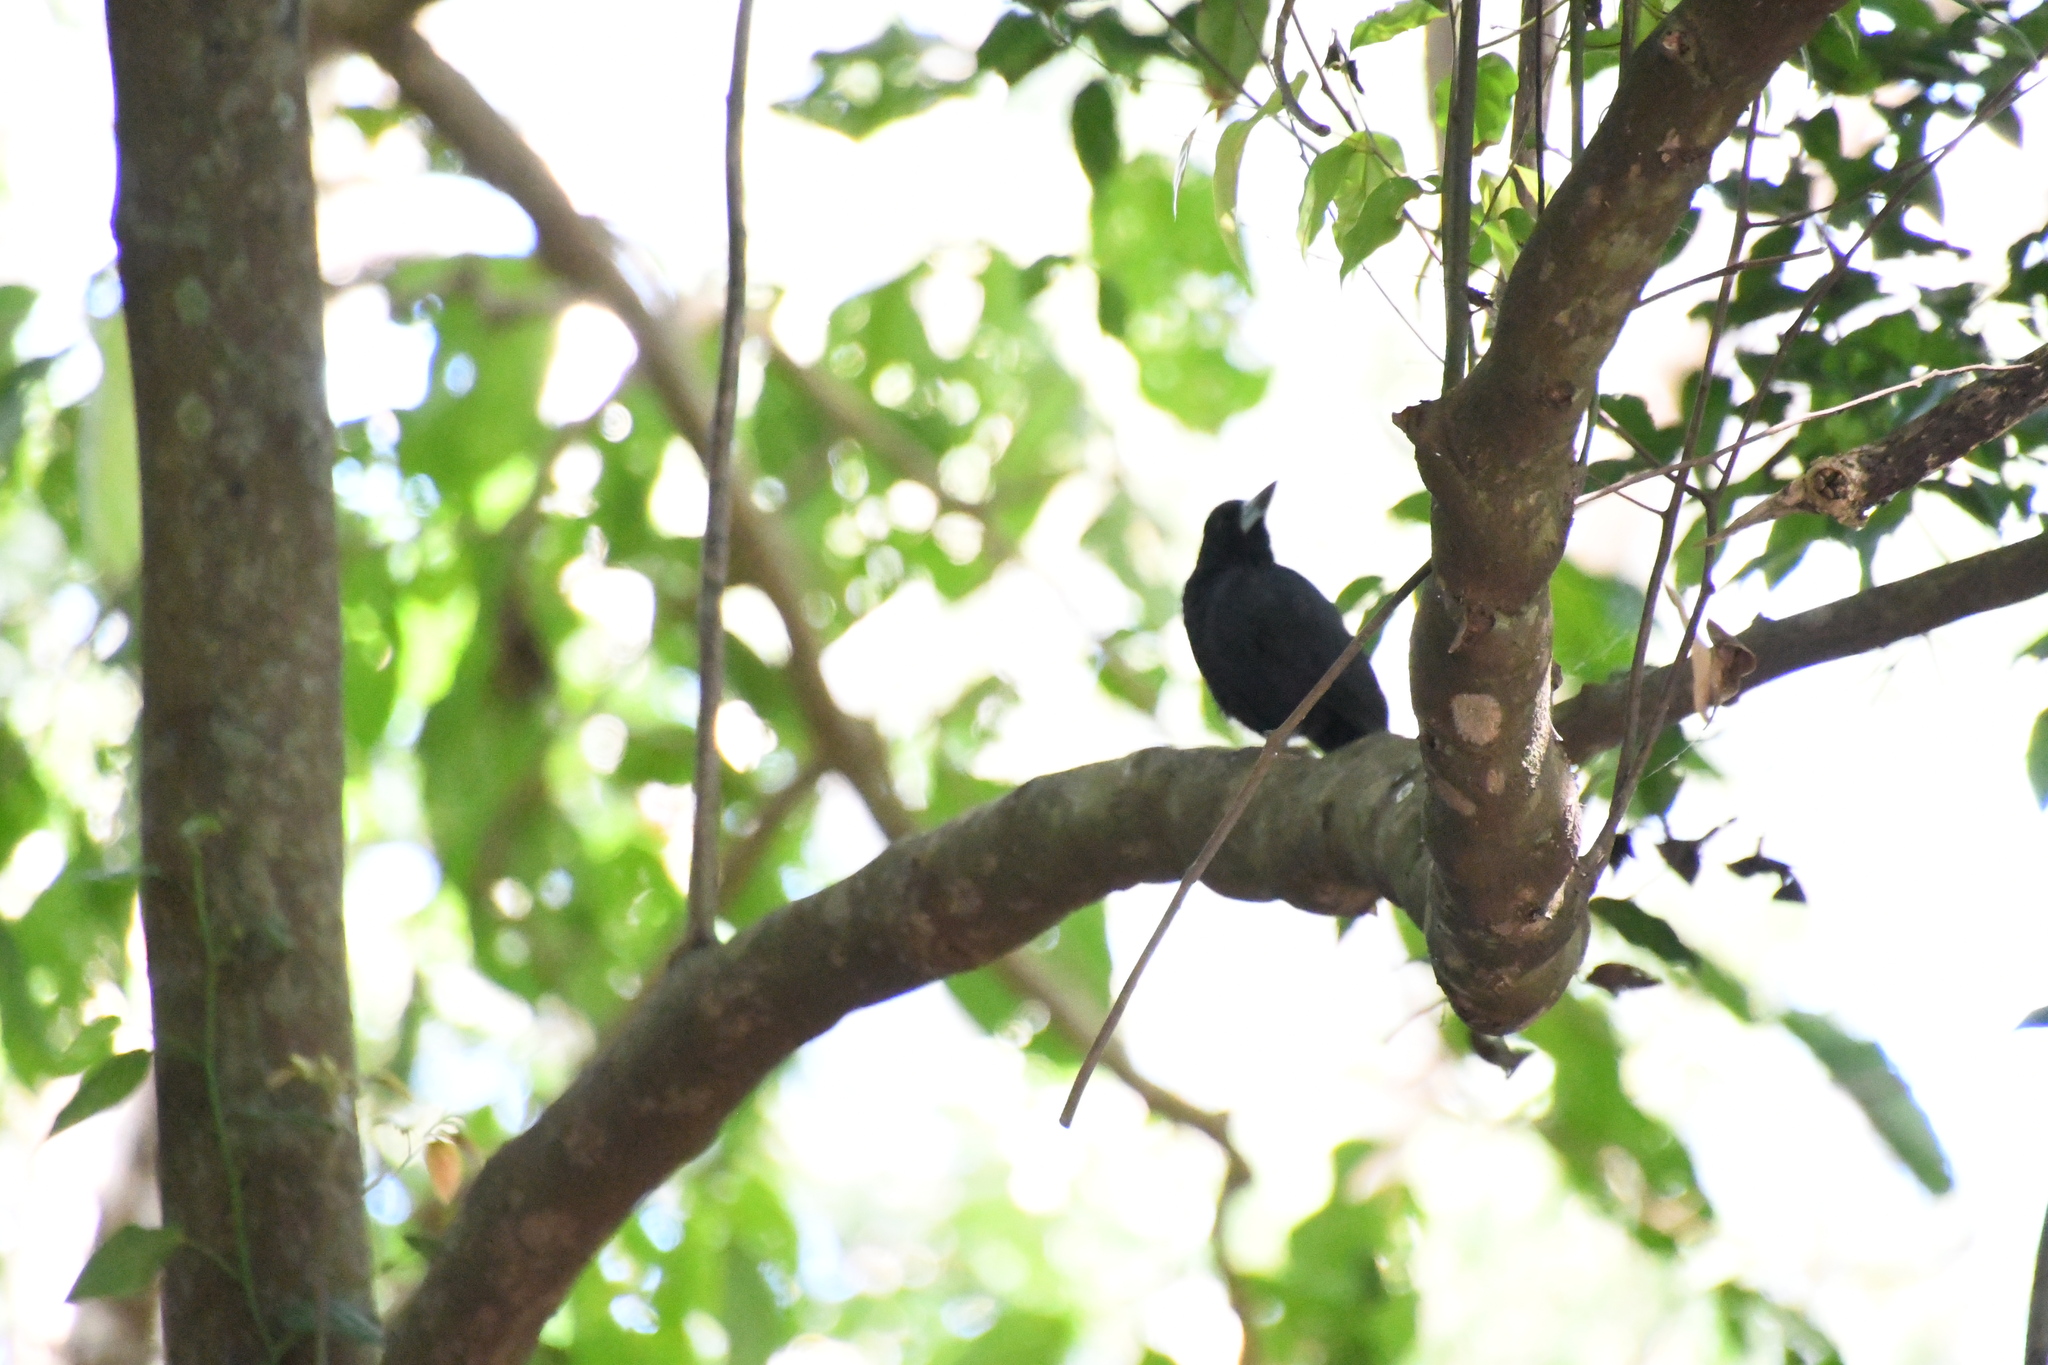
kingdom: Animalia
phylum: Chordata
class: Aves
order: Passeriformes
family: Artamidae
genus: Melloria
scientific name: Melloria quoyi
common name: Black butcherbird
